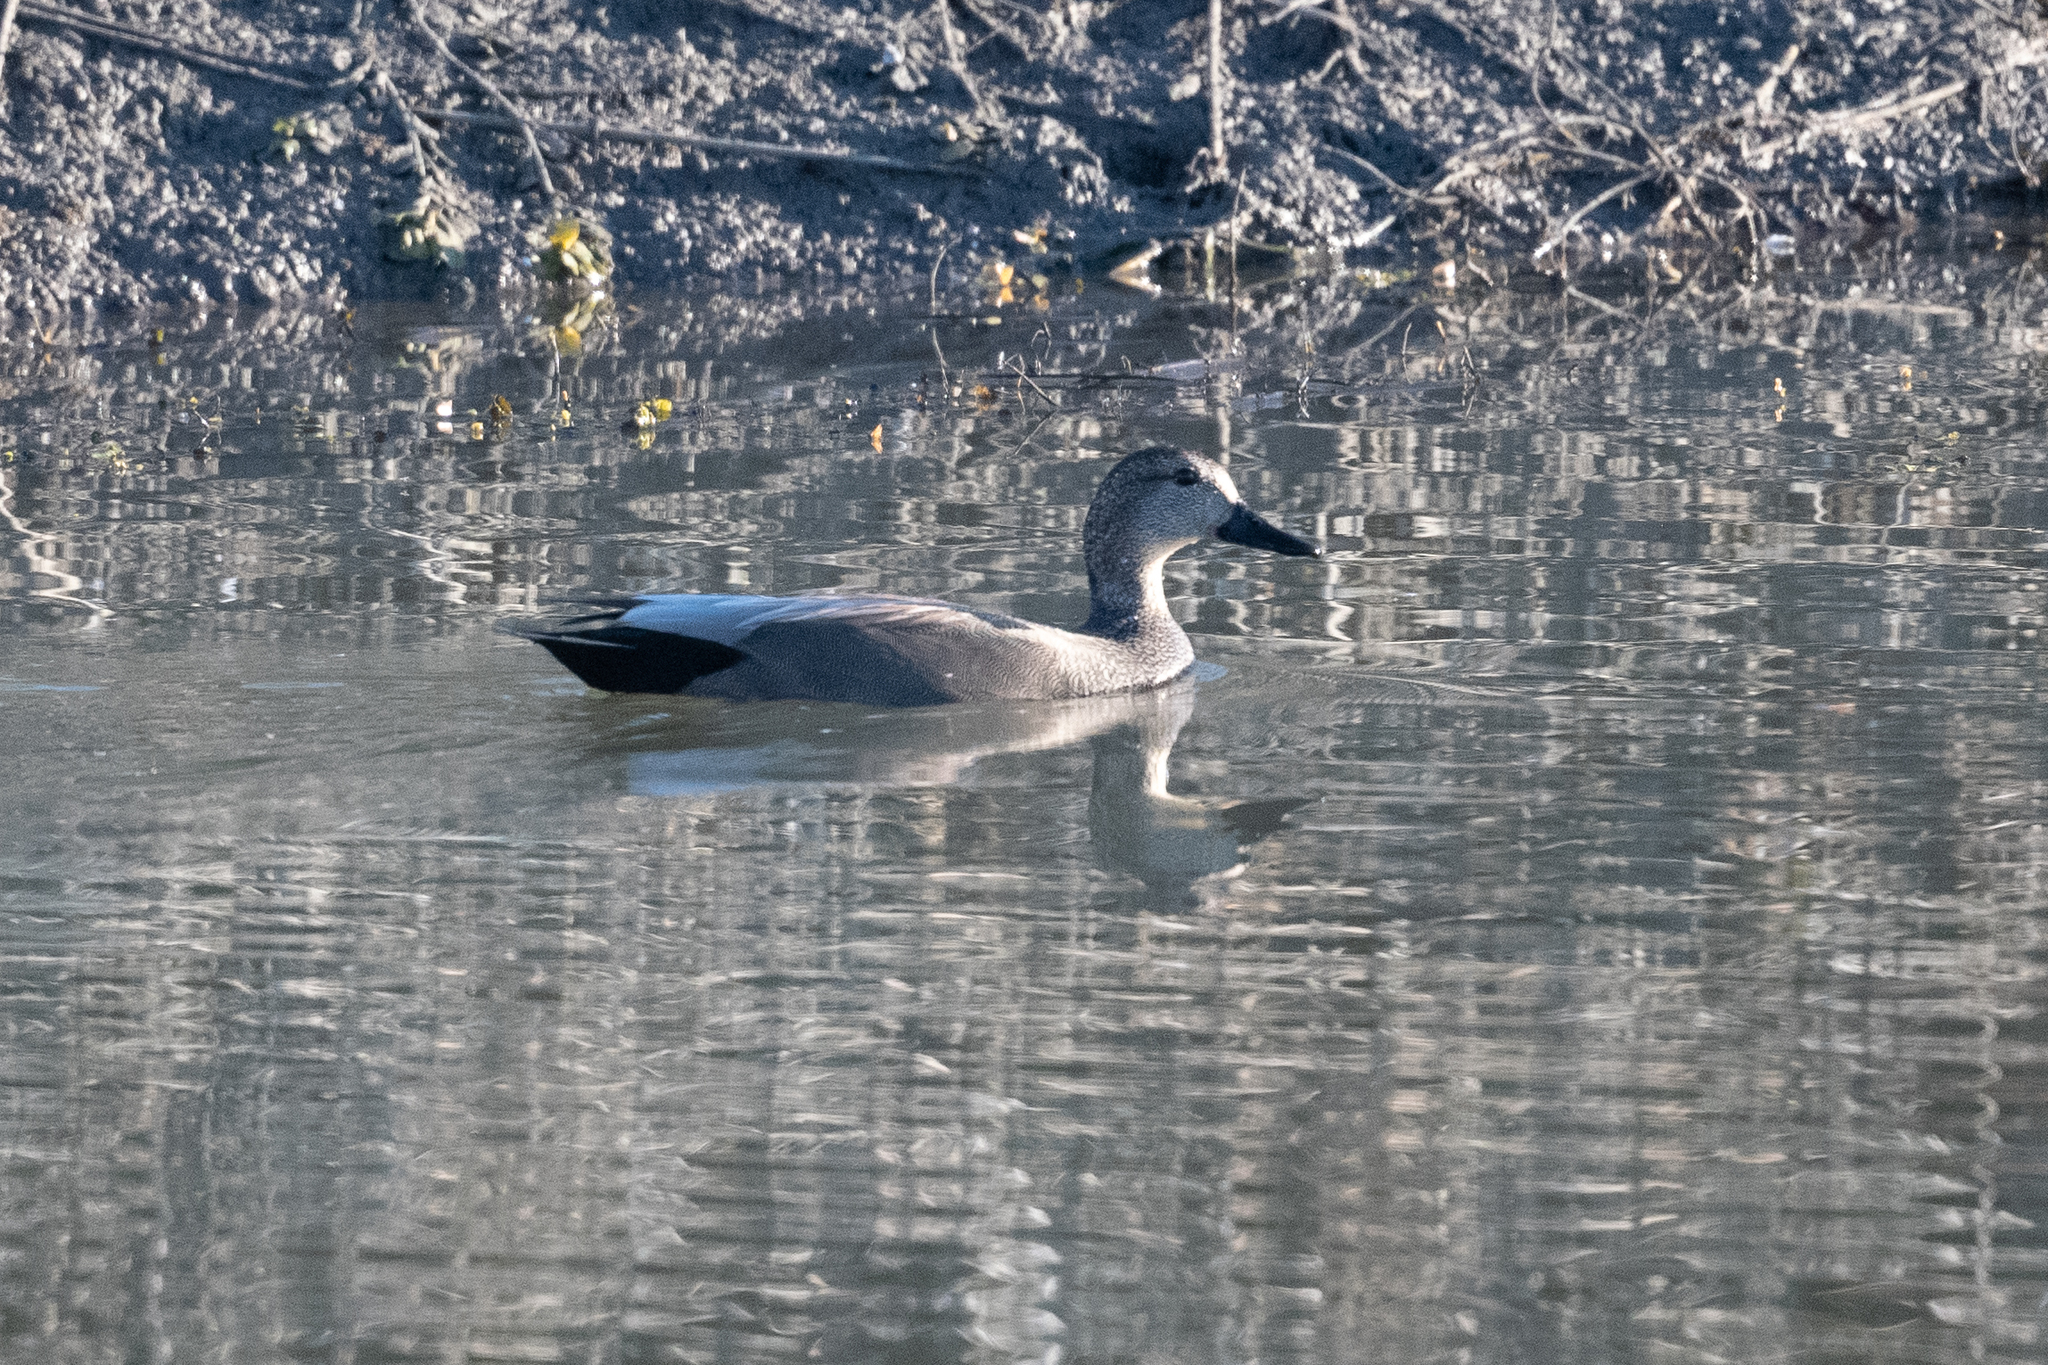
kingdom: Animalia
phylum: Chordata
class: Aves
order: Anseriformes
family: Anatidae
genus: Mareca
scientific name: Mareca strepera
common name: Gadwall
